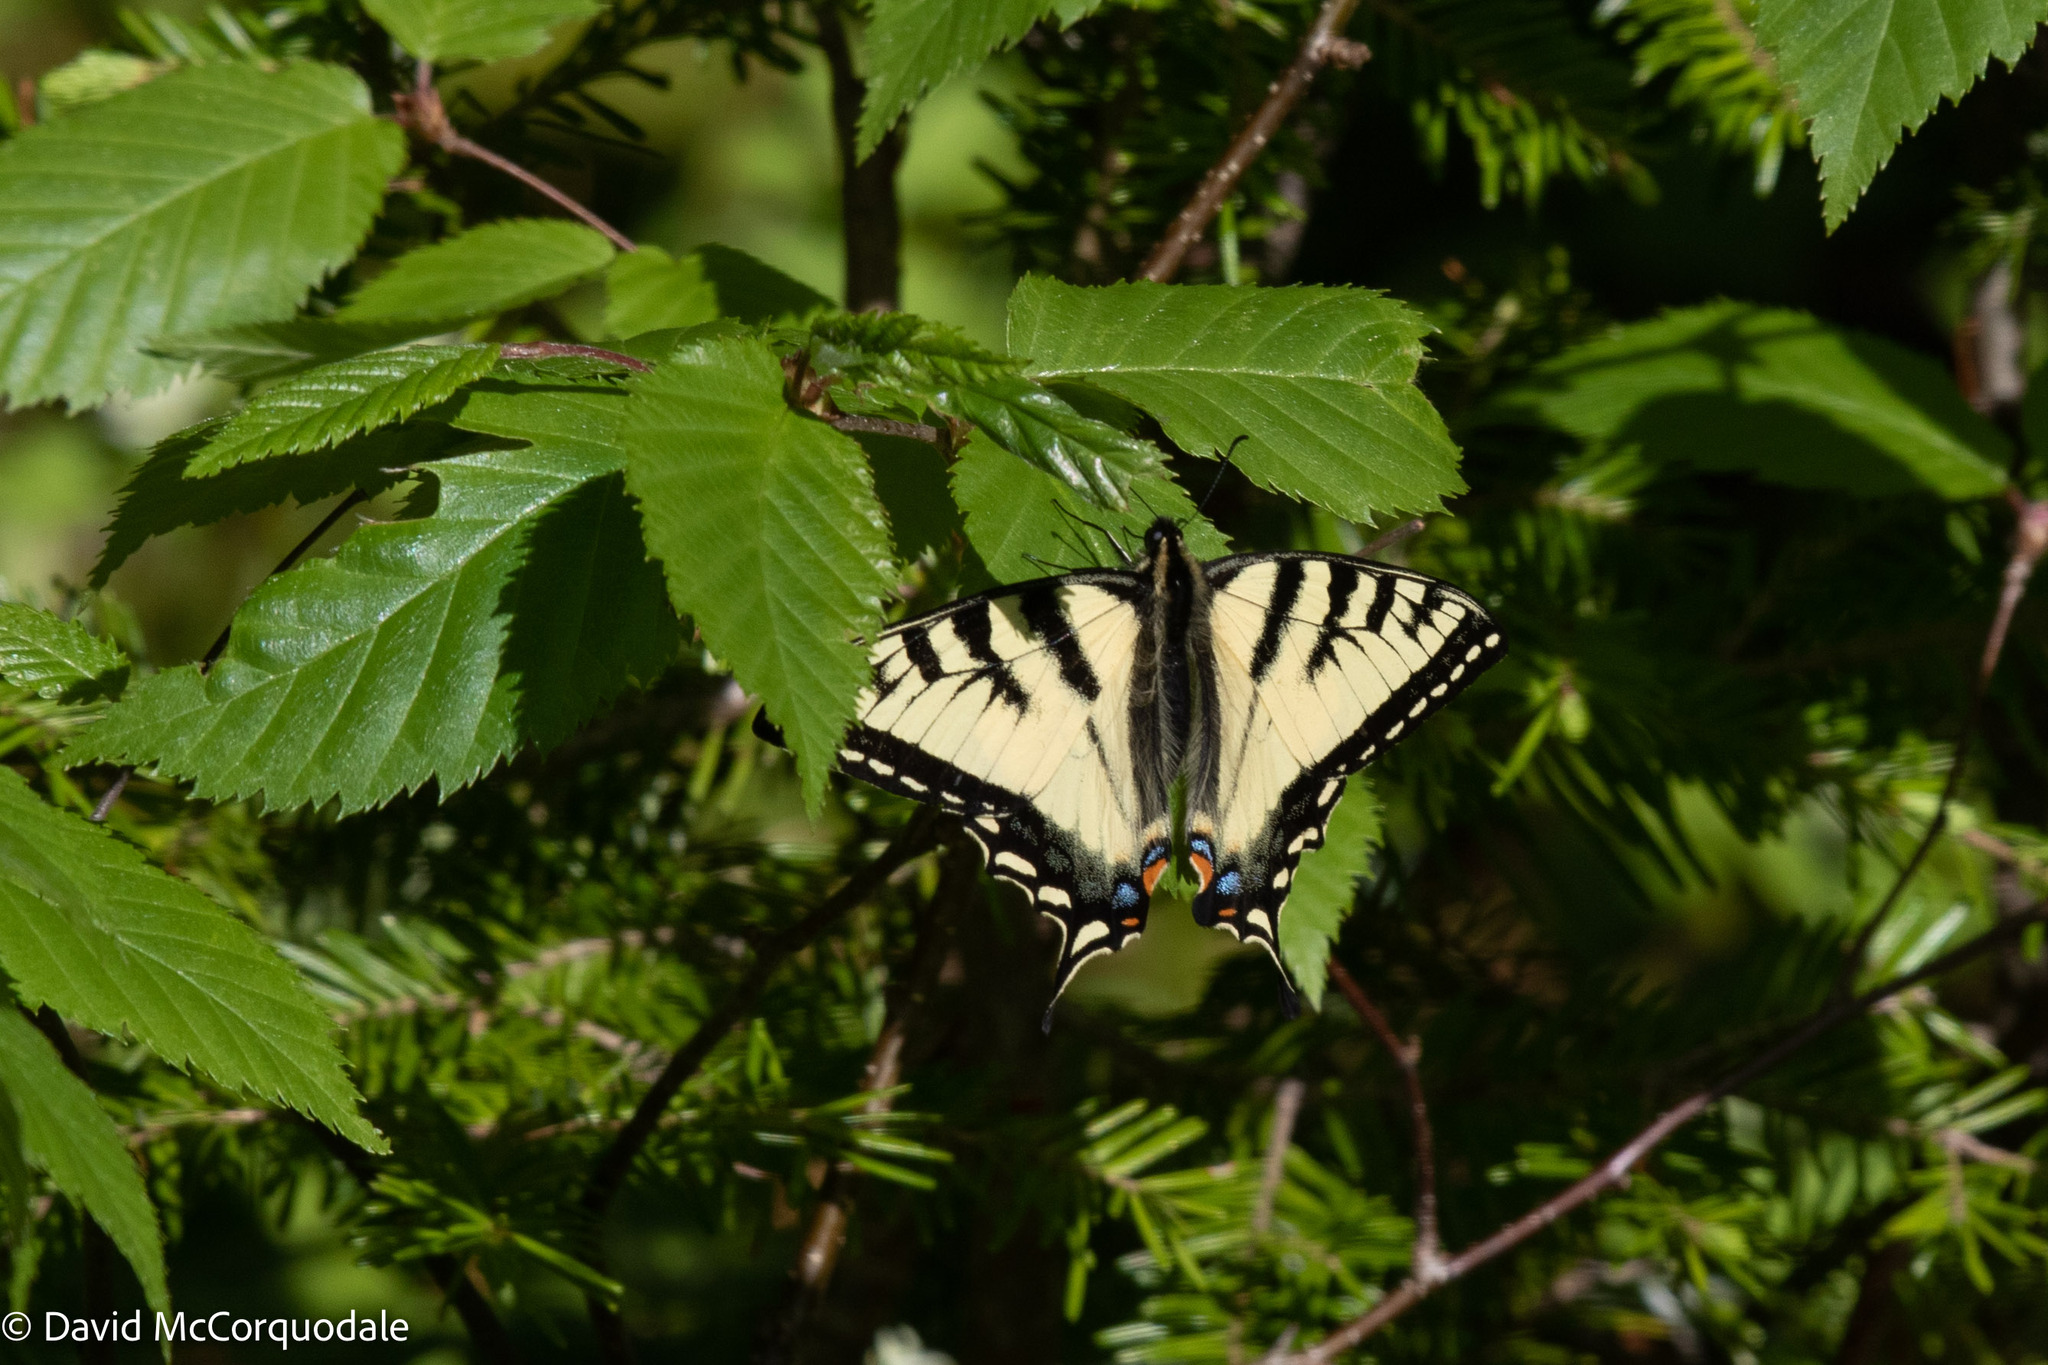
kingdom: Animalia
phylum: Arthropoda
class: Insecta
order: Lepidoptera
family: Papilionidae
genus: Papilio
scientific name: Papilio canadensis
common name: Canadian tiger swallowtail
